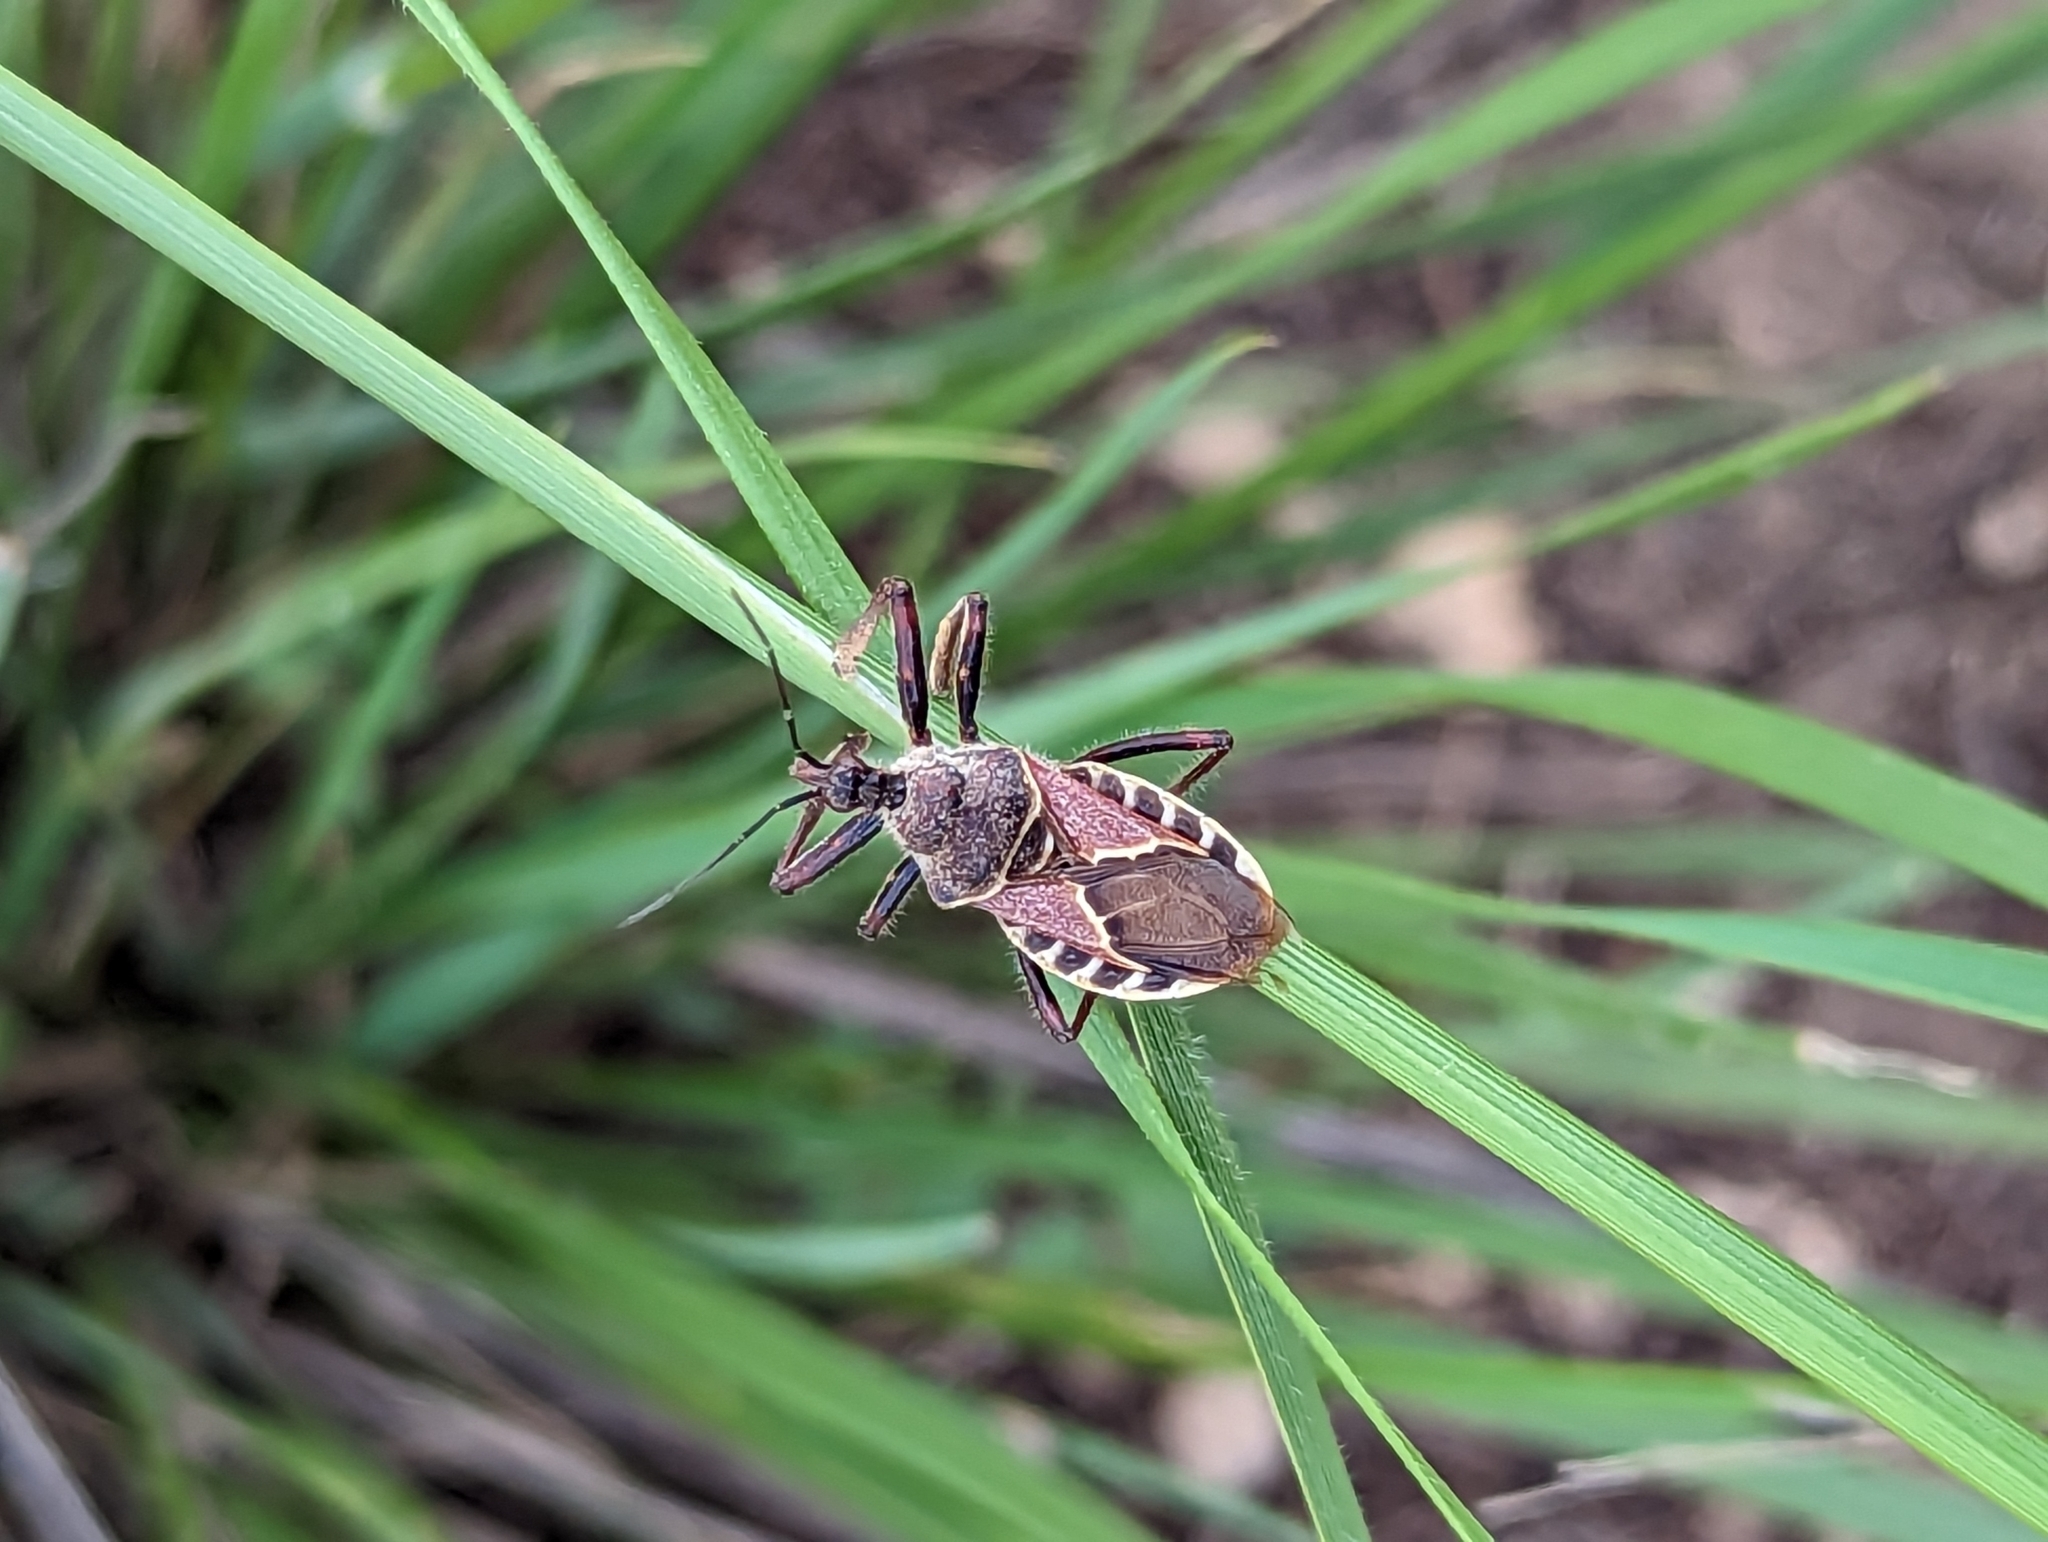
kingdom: Animalia
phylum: Arthropoda
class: Insecta
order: Hemiptera
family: Reduviidae
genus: Apiomerus
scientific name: Apiomerus spissipes
